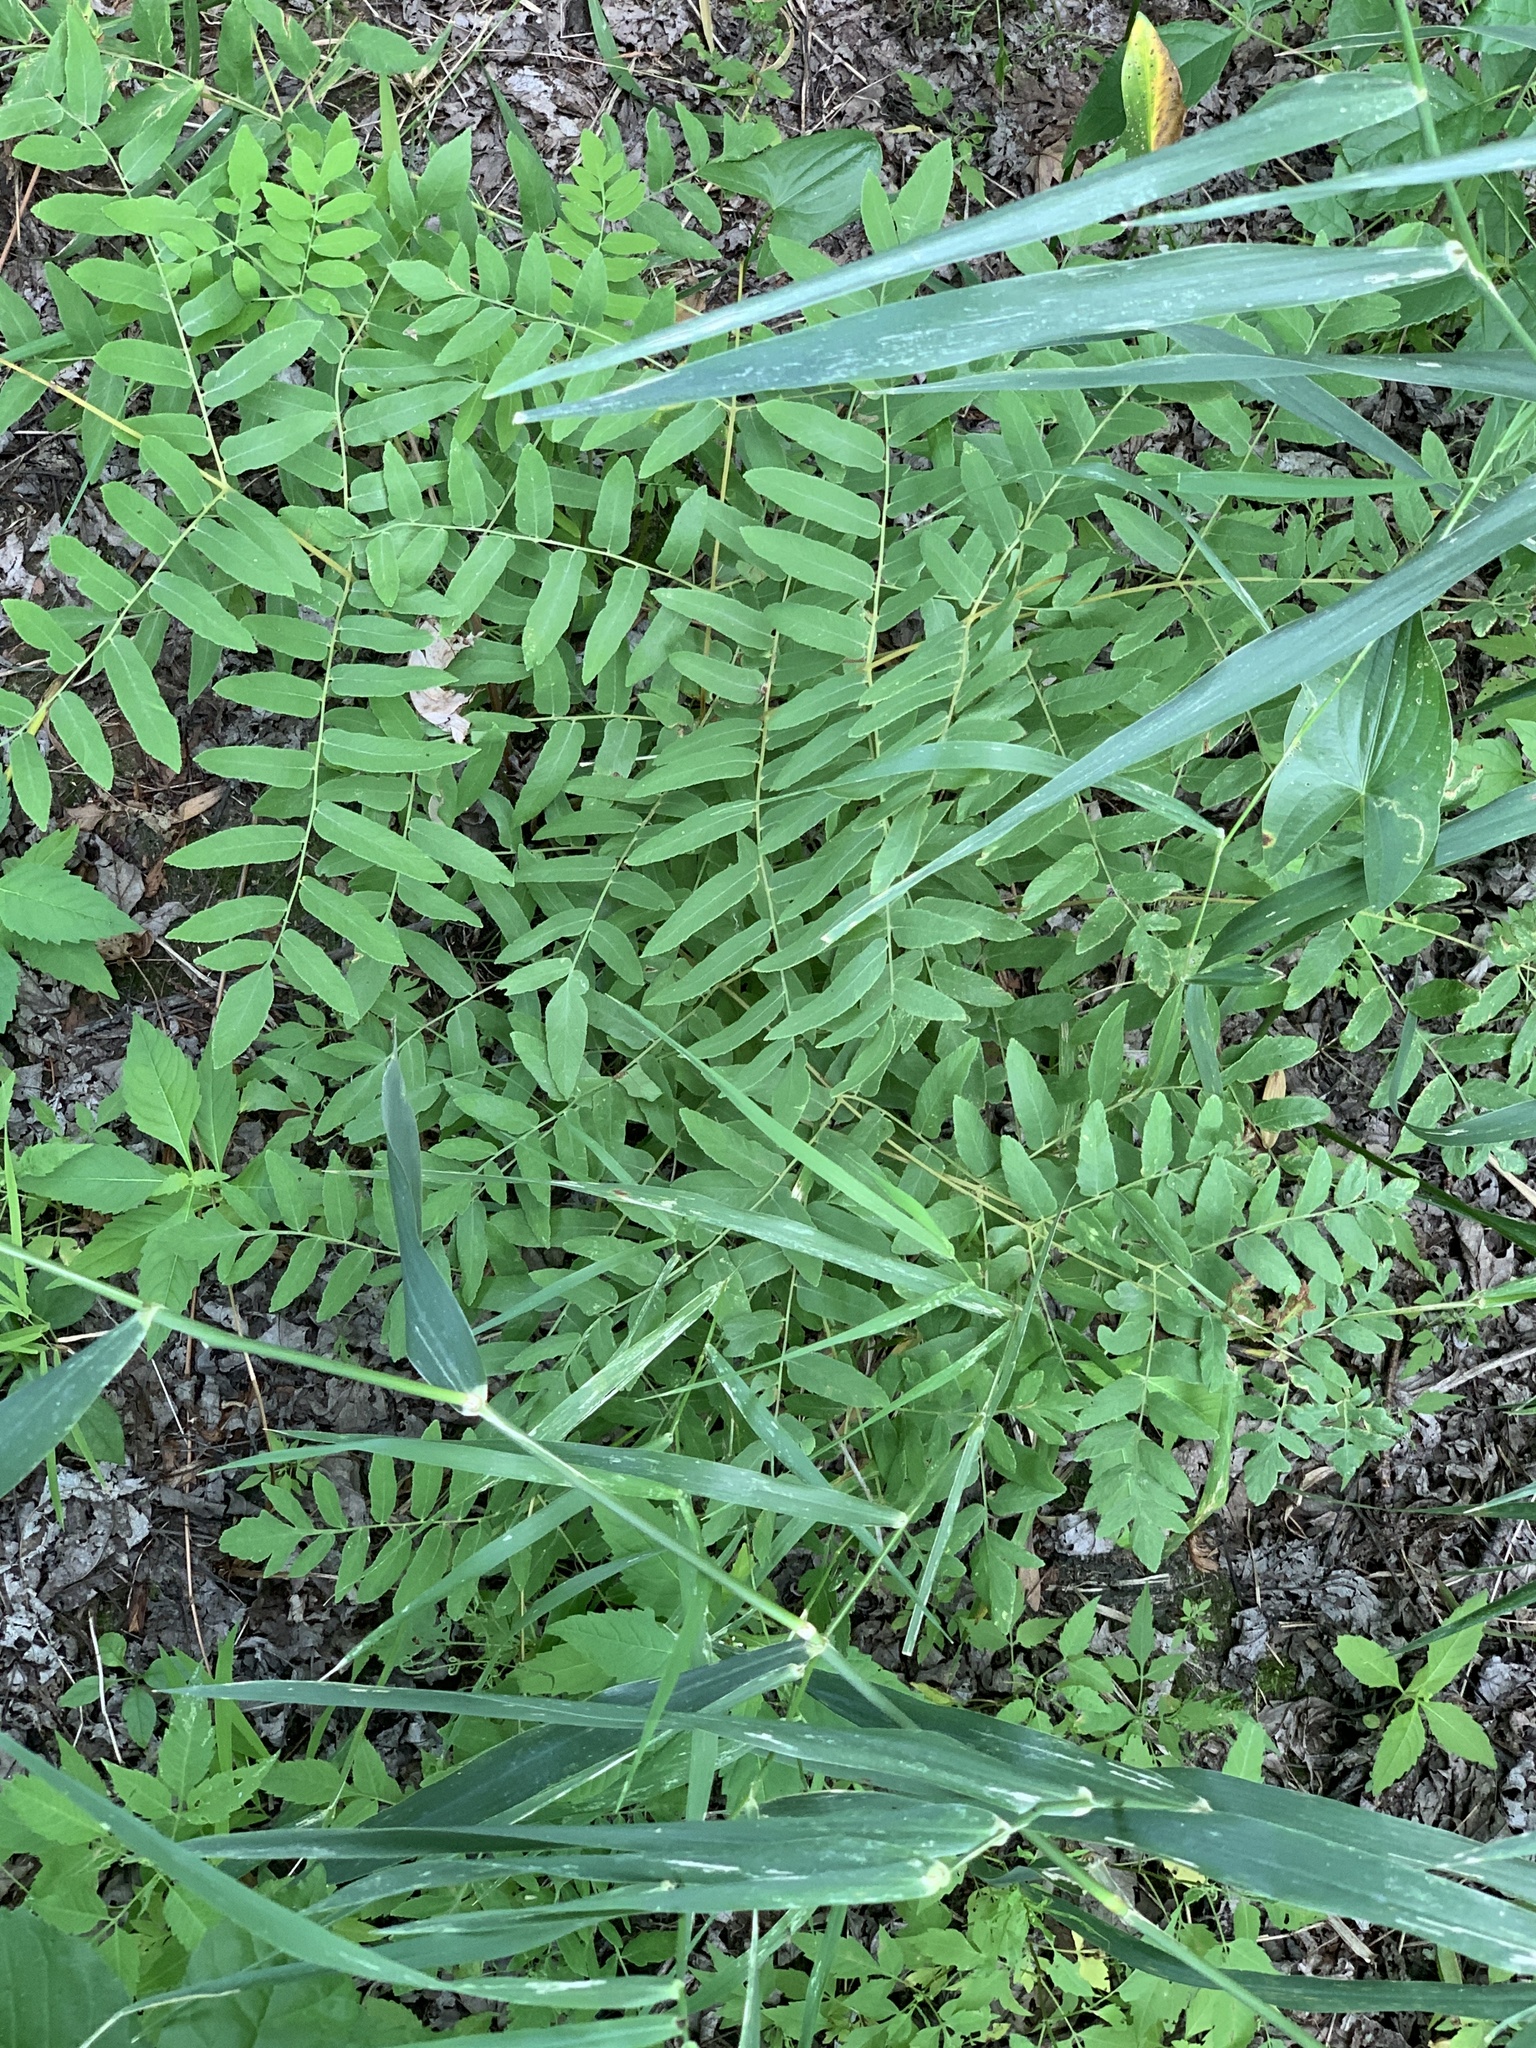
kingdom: Plantae
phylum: Tracheophyta
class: Polypodiopsida
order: Osmundales
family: Osmundaceae
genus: Osmunda
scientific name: Osmunda spectabilis
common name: American royal fern
